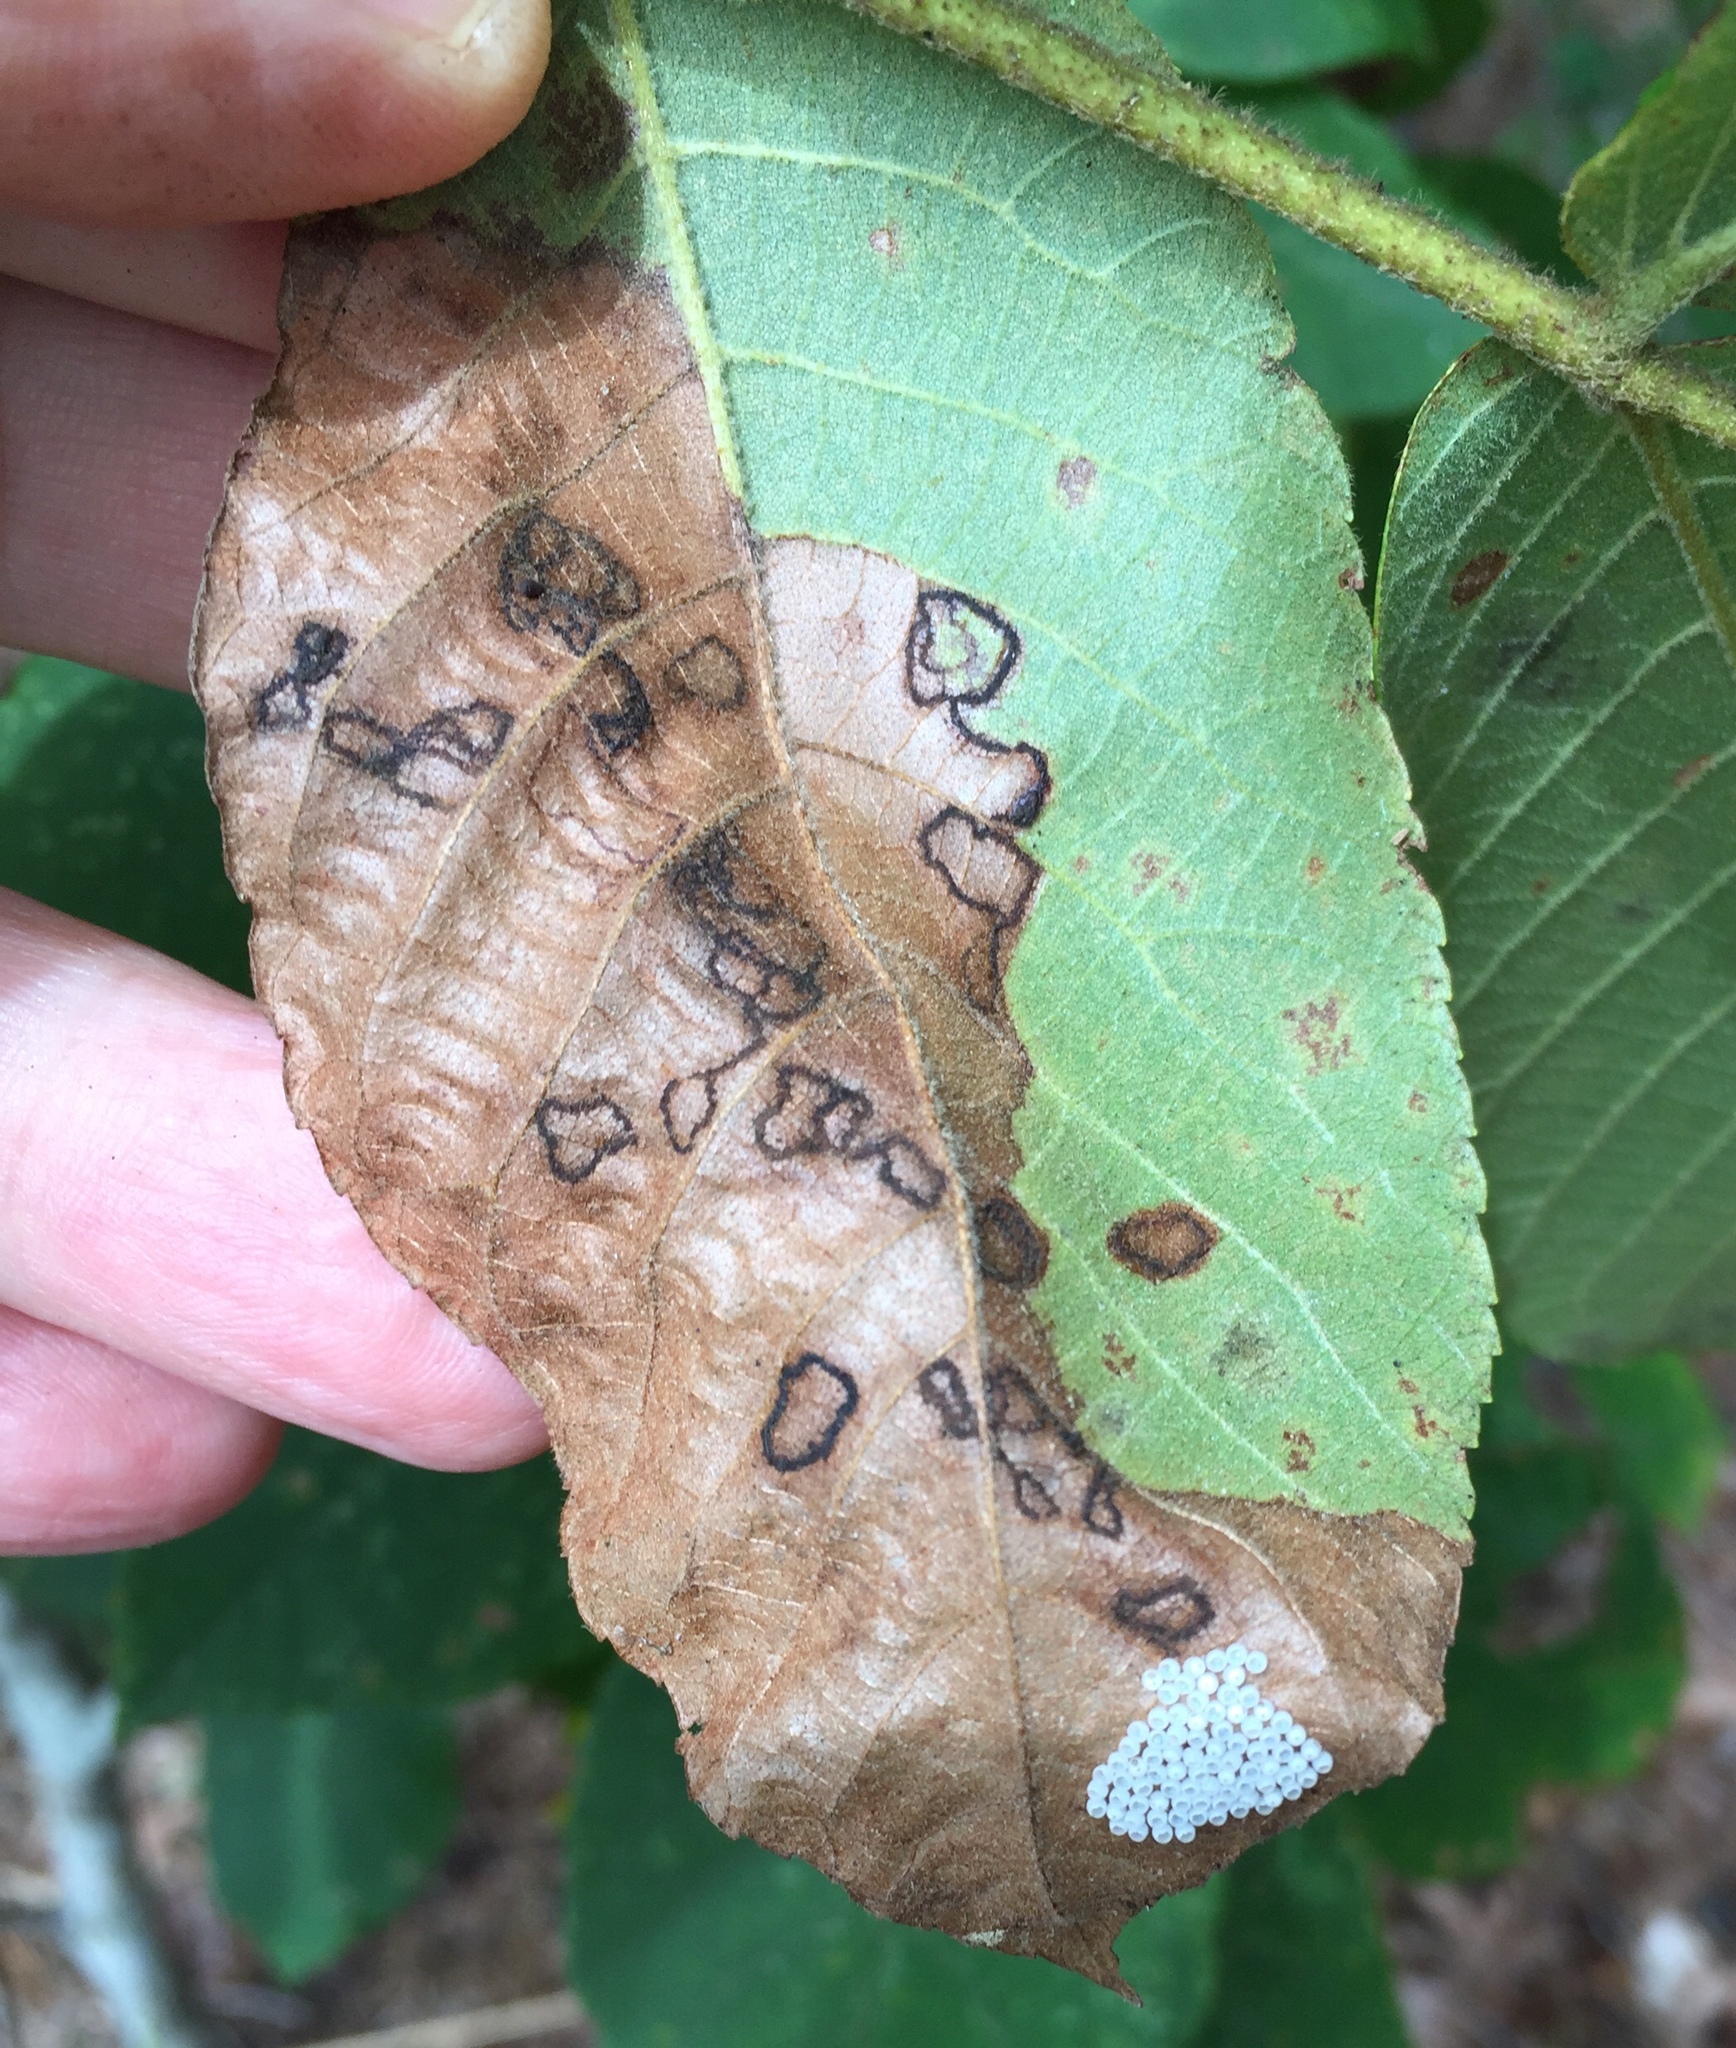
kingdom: Animalia
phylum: Arthropoda
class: Insecta
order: Diptera
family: Cecidomyiidae
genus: Gliaspilota
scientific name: Gliaspilota glutinosa
